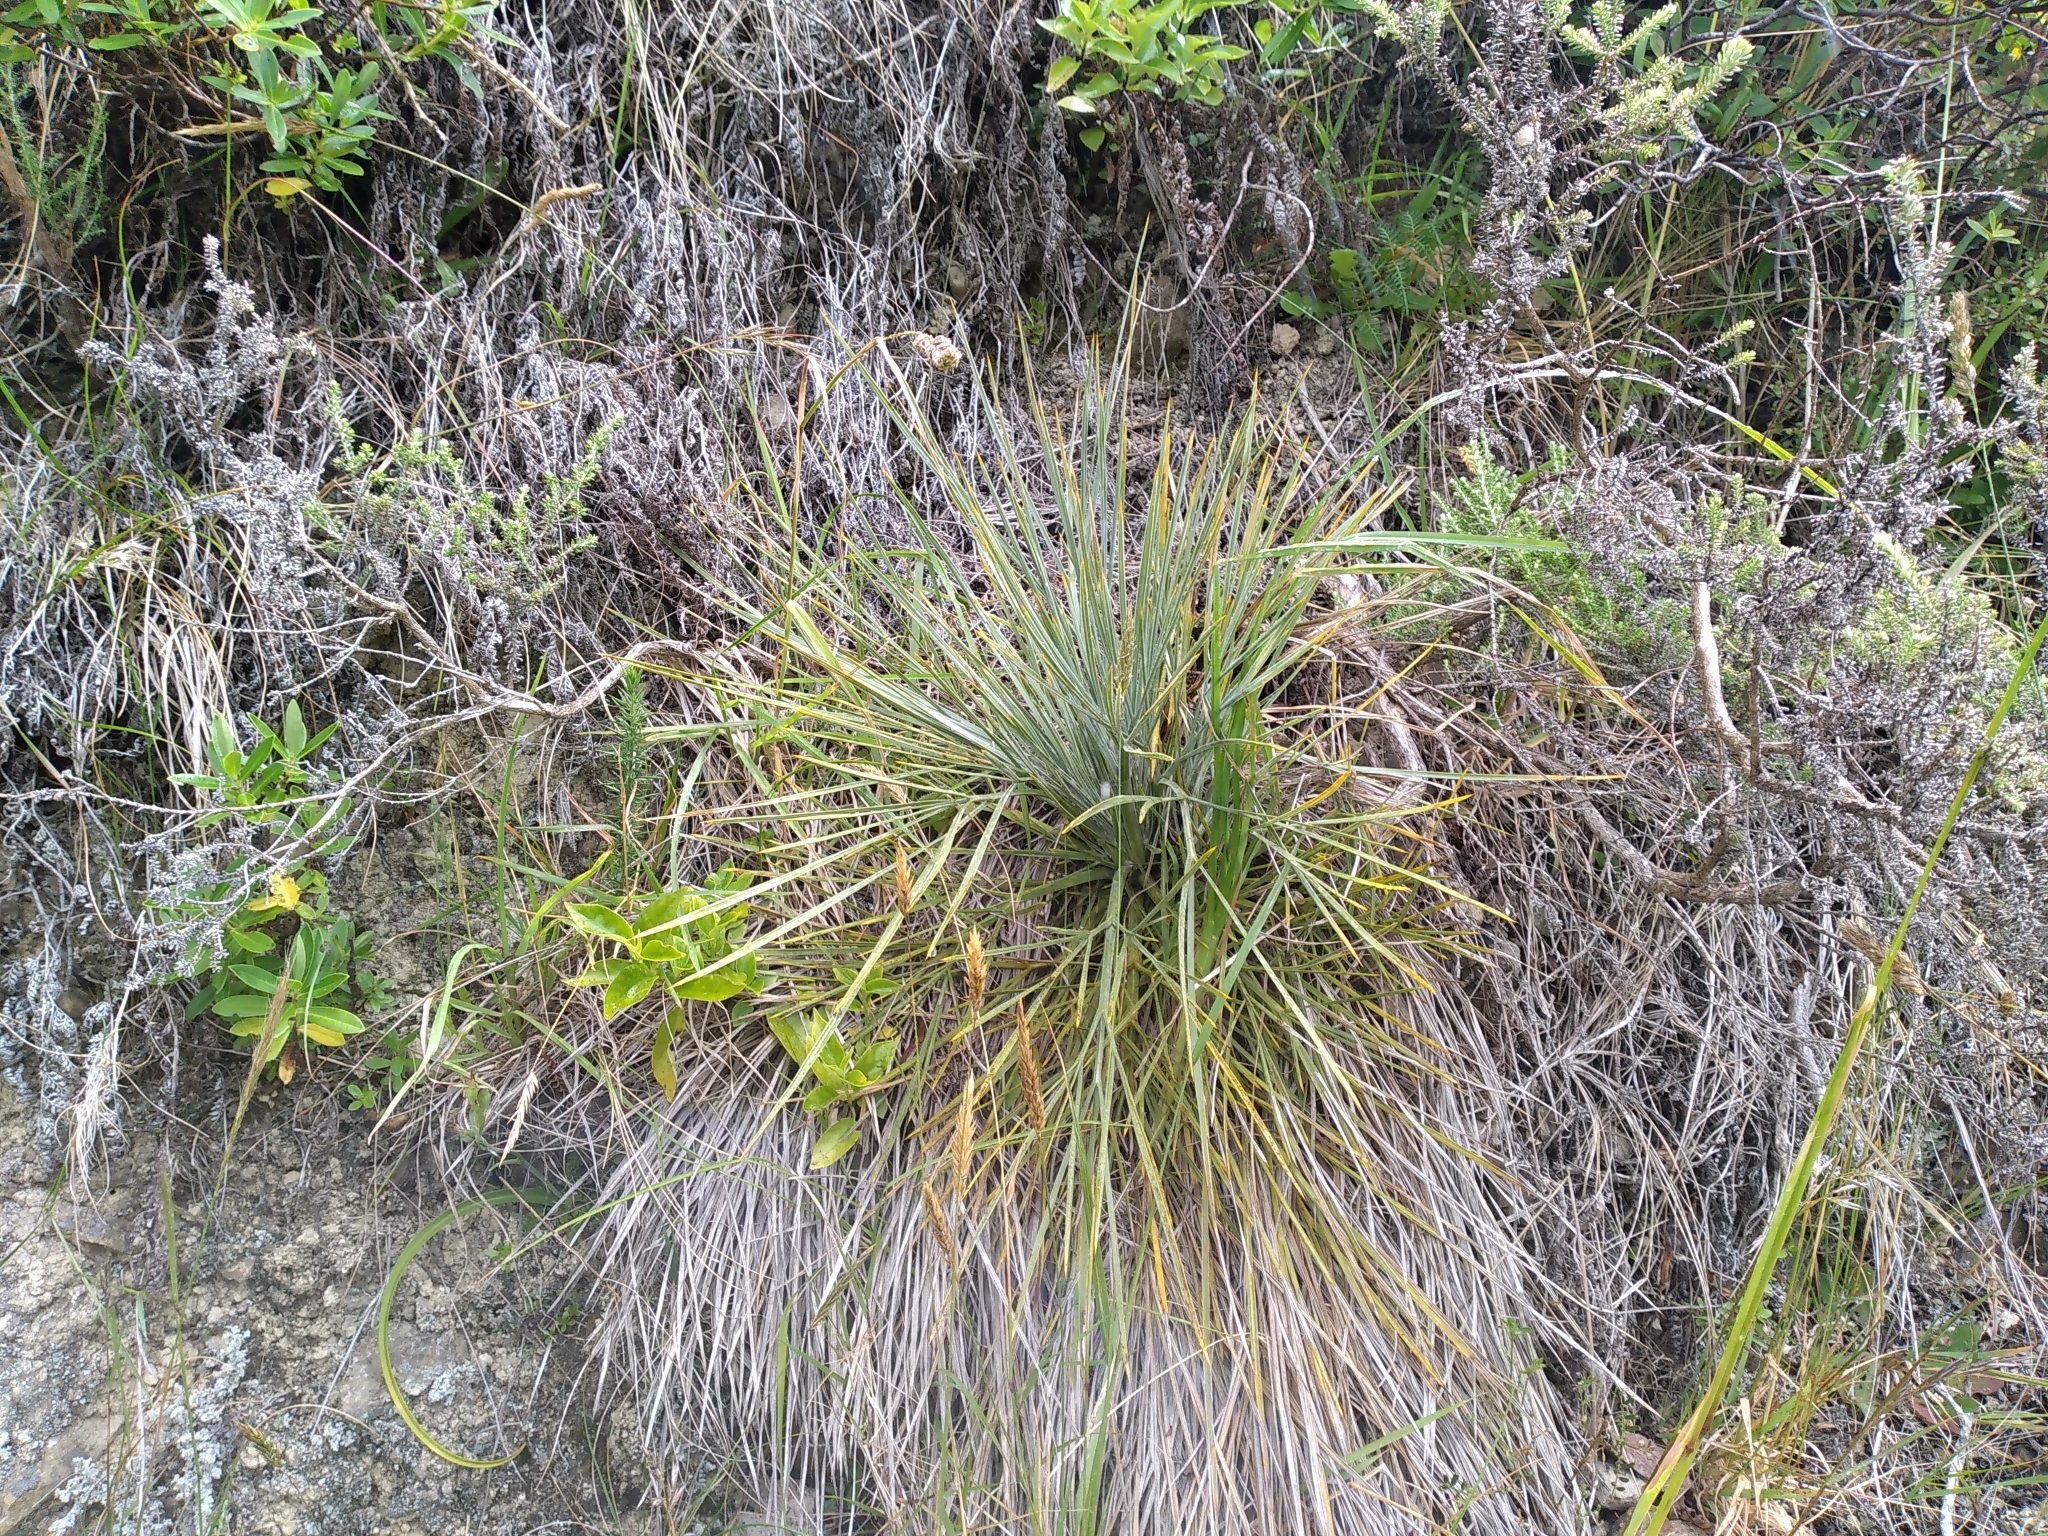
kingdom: Plantae
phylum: Tracheophyta
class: Magnoliopsida
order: Apiales
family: Apiaceae
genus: Aciphylla
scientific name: Aciphylla squarrosa
